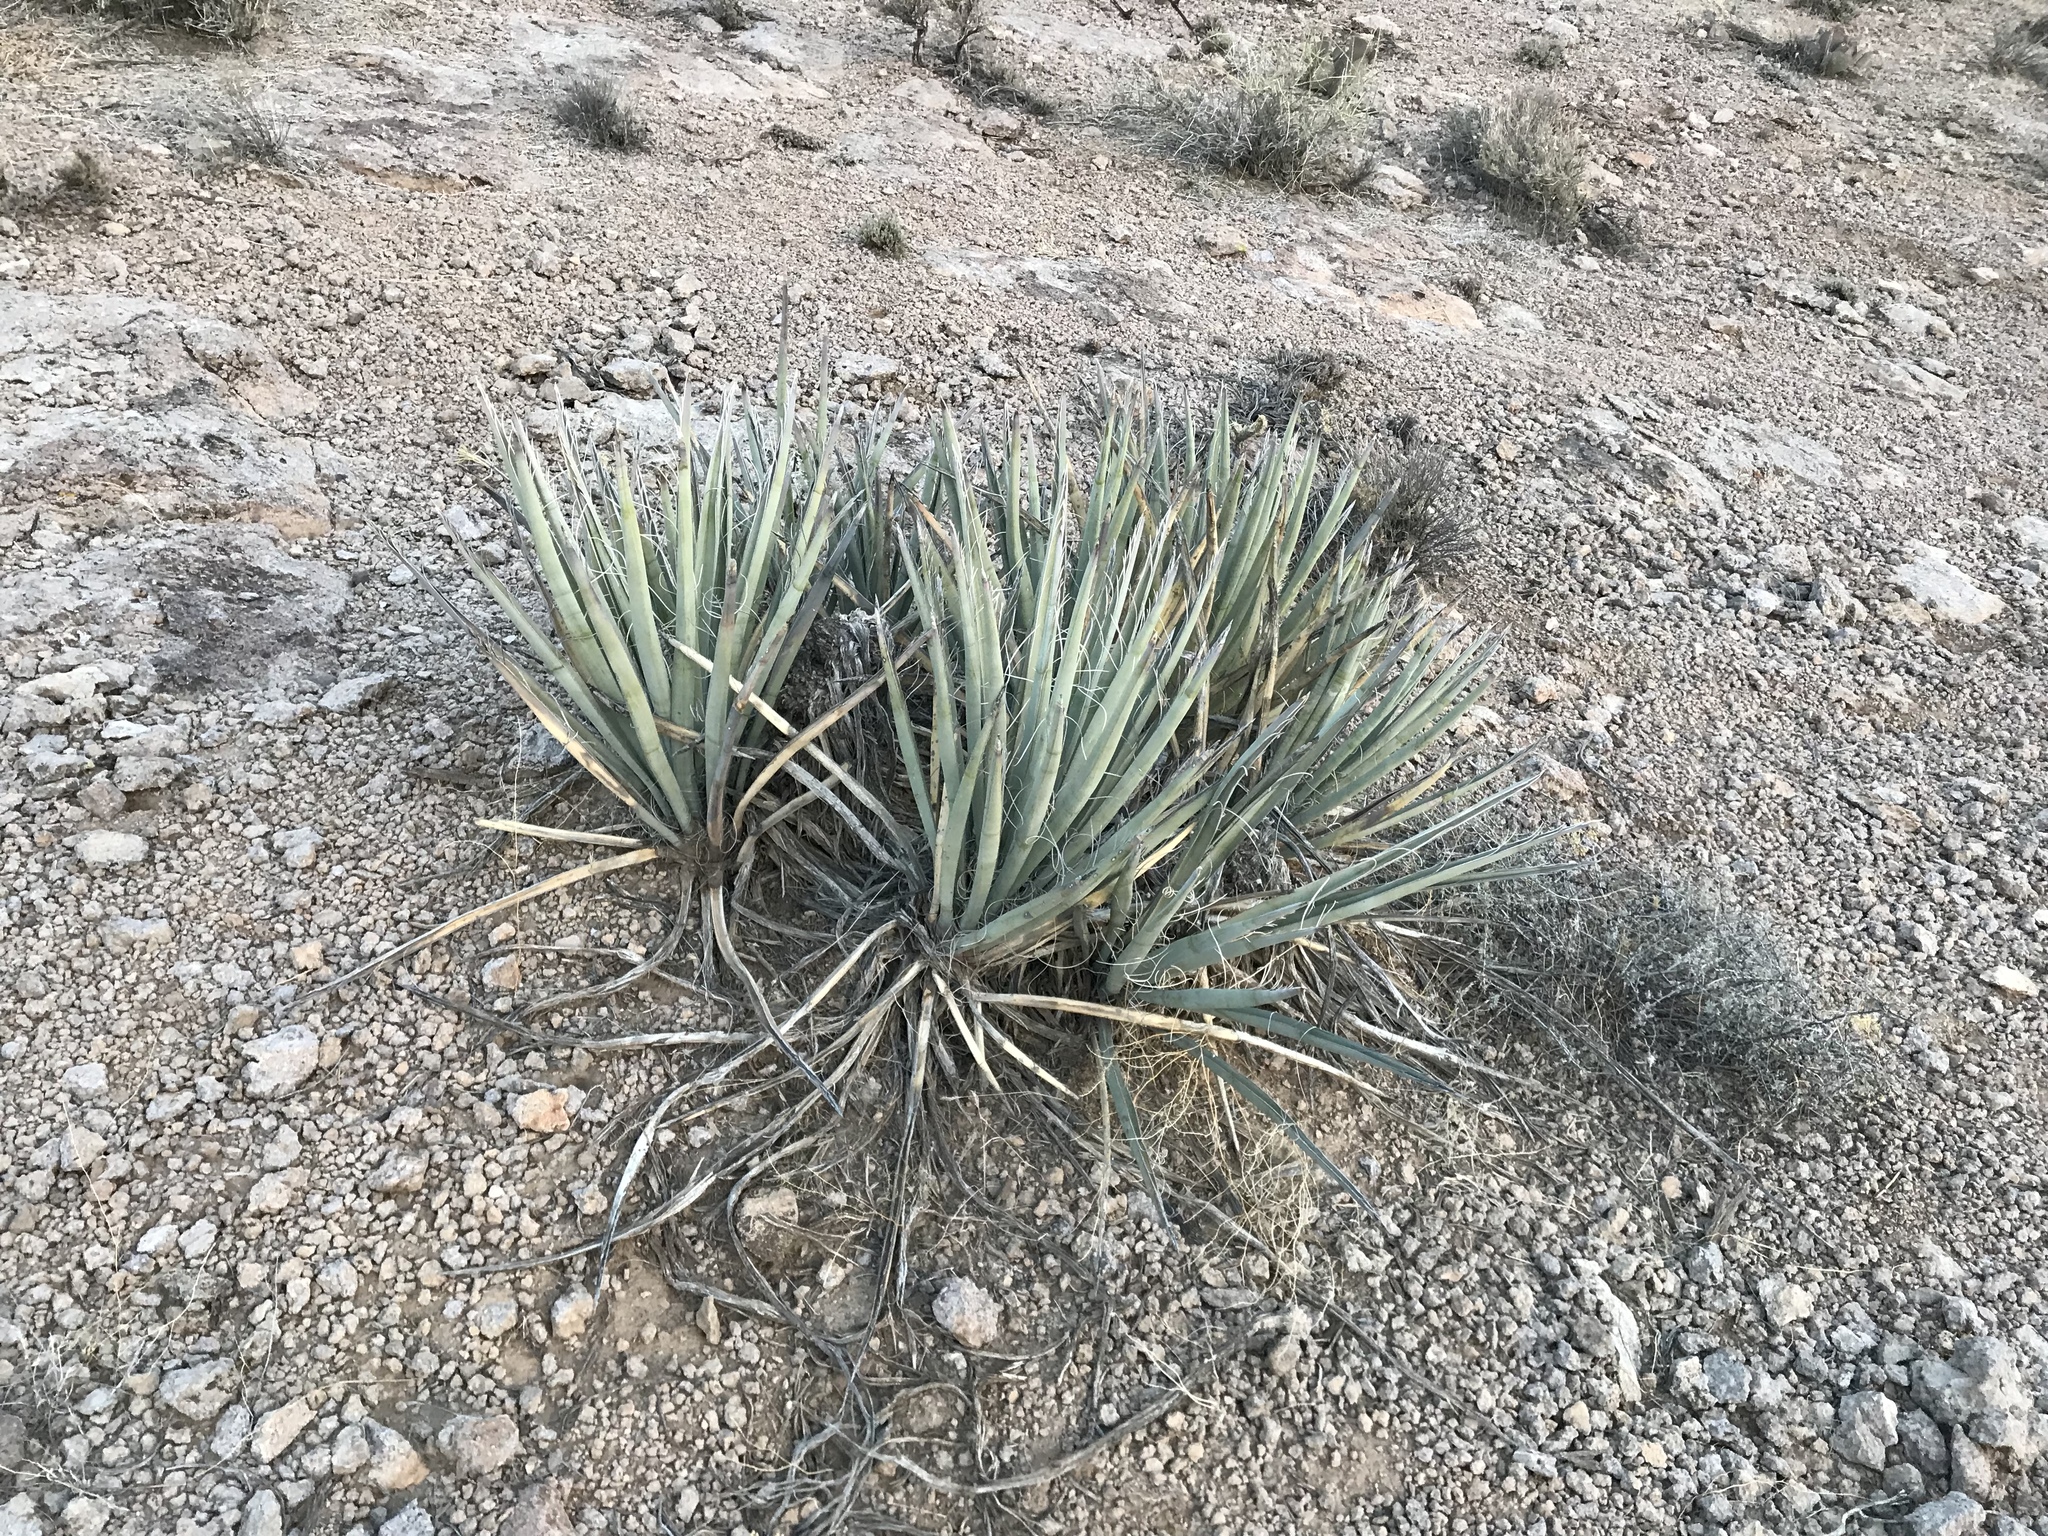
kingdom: Plantae
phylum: Tracheophyta
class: Liliopsida
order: Asparagales
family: Asparagaceae
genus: Yucca
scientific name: Yucca baccata
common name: Banana yucca
